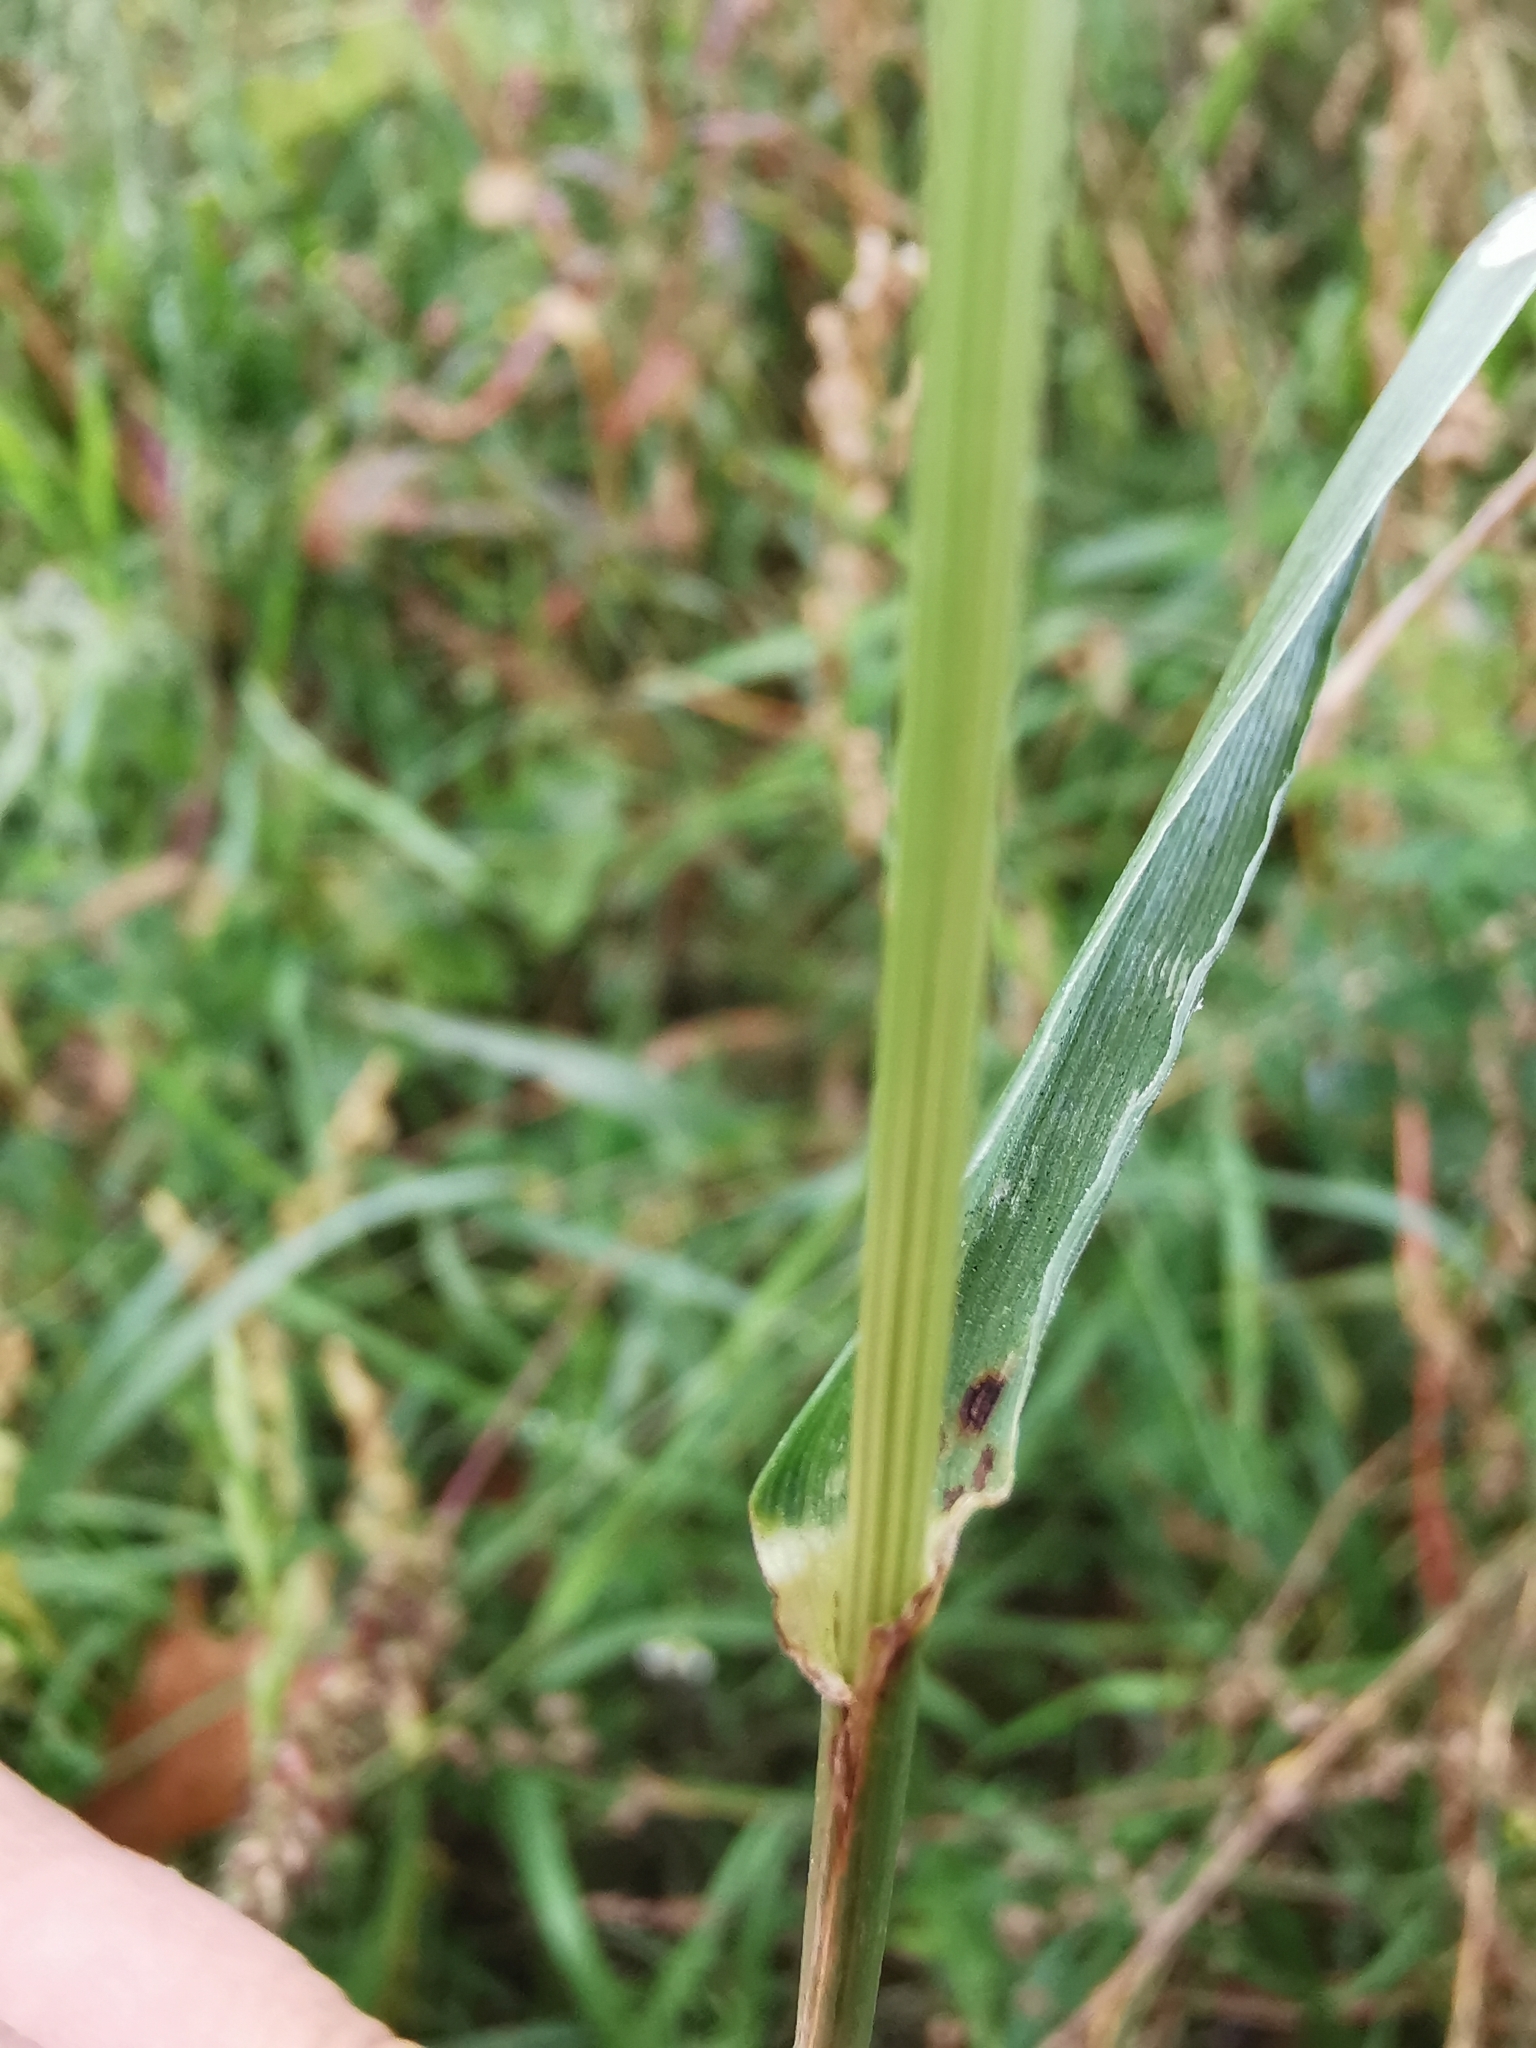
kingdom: Plantae
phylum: Tracheophyta
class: Liliopsida
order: Poales
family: Poaceae
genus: Lolium
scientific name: Lolium perenne
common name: Perennial ryegrass
